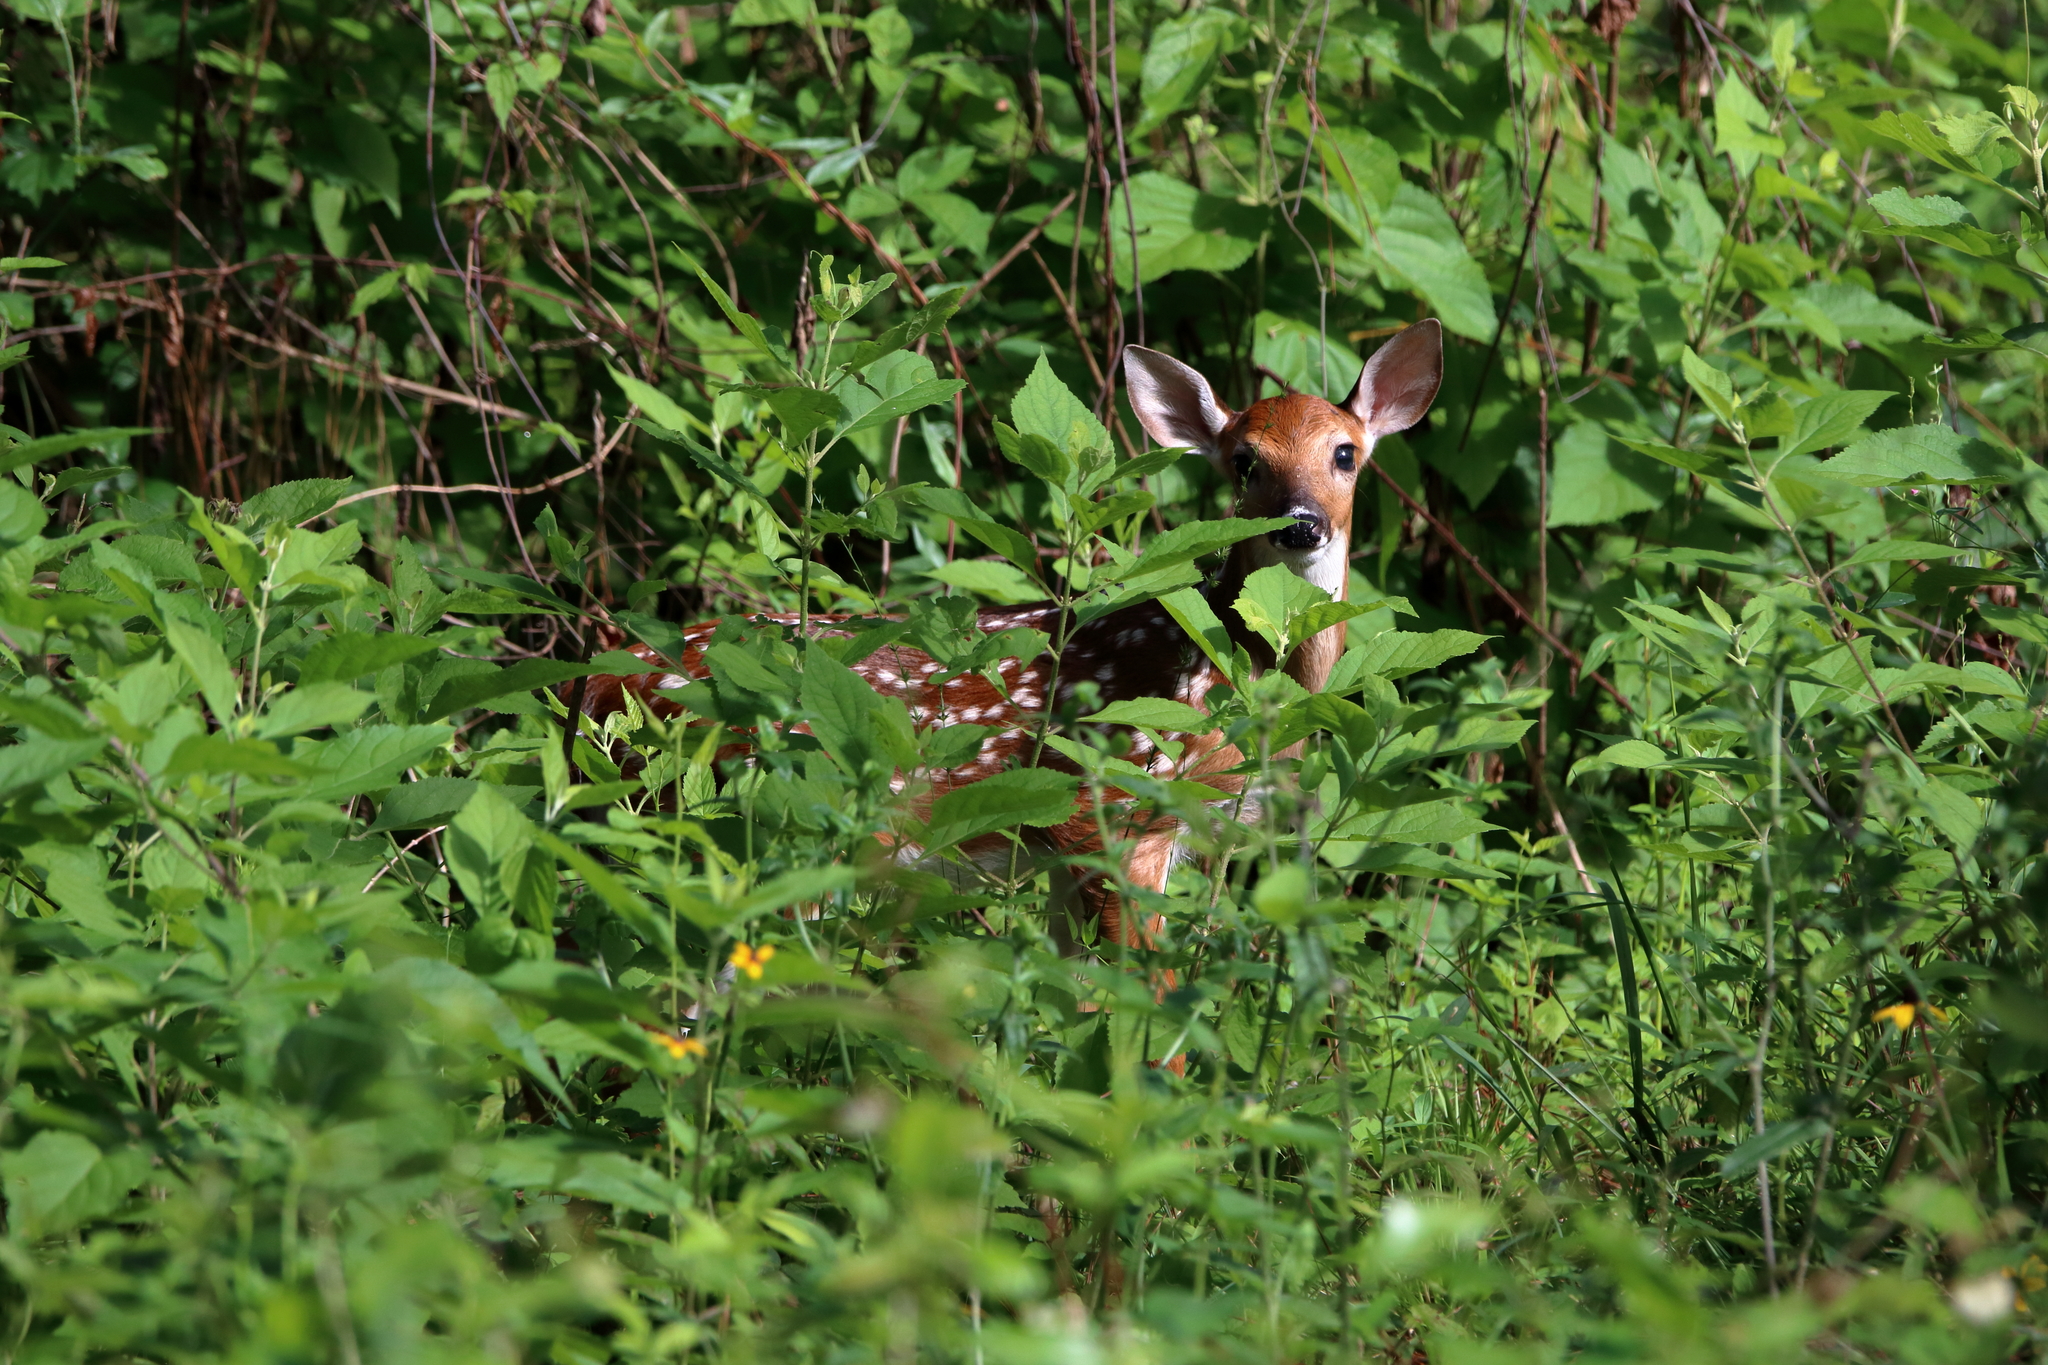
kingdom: Animalia
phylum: Chordata
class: Mammalia
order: Artiodactyla
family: Cervidae
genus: Odocoileus
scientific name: Odocoileus virginianus
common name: White-tailed deer
